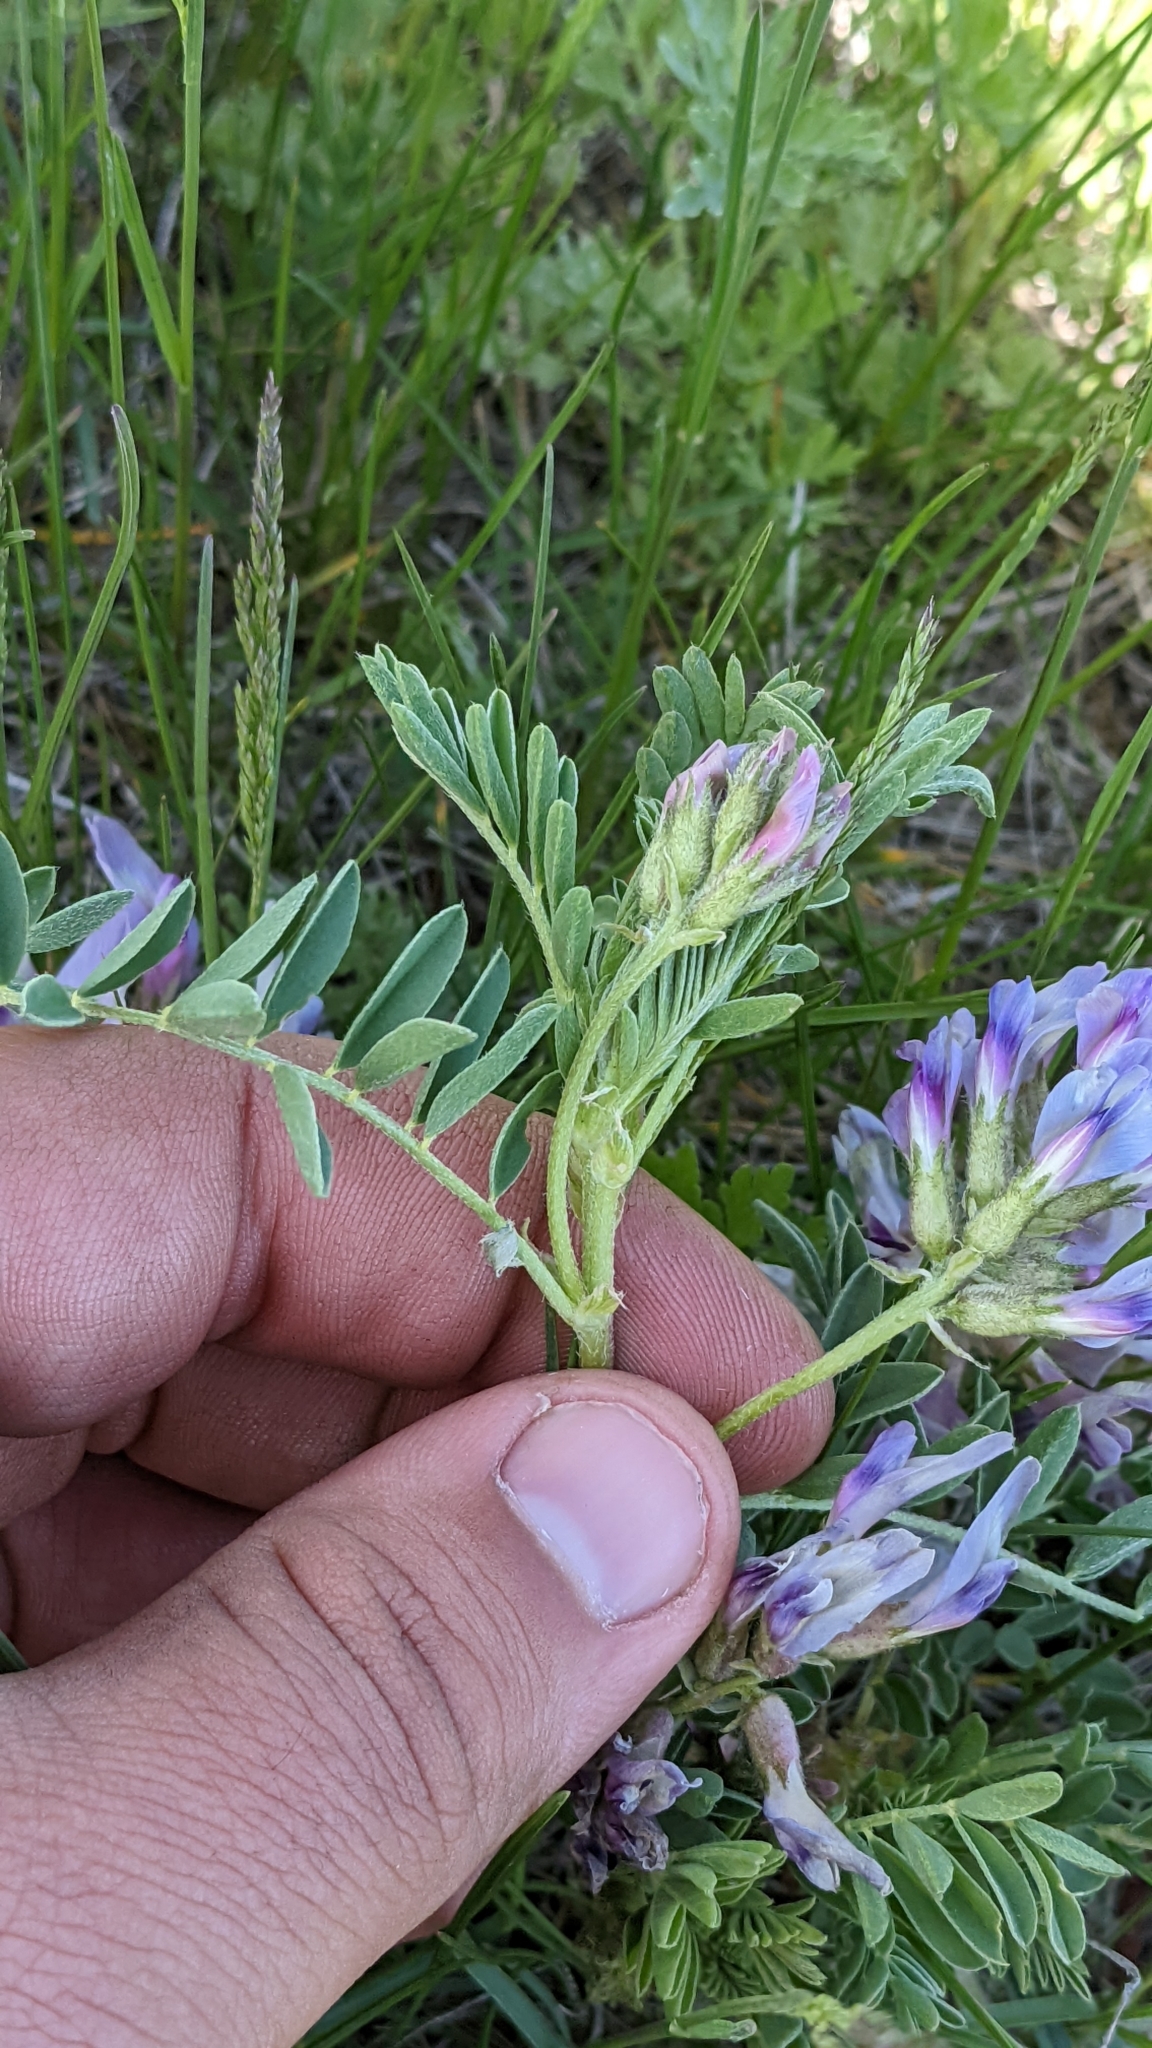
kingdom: Plantae
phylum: Tracheophyta
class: Magnoliopsida
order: Fabales
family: Fabaceae
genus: Astragalus
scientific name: Astragalus crassicarpus
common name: Ground-plum milk-vetch
